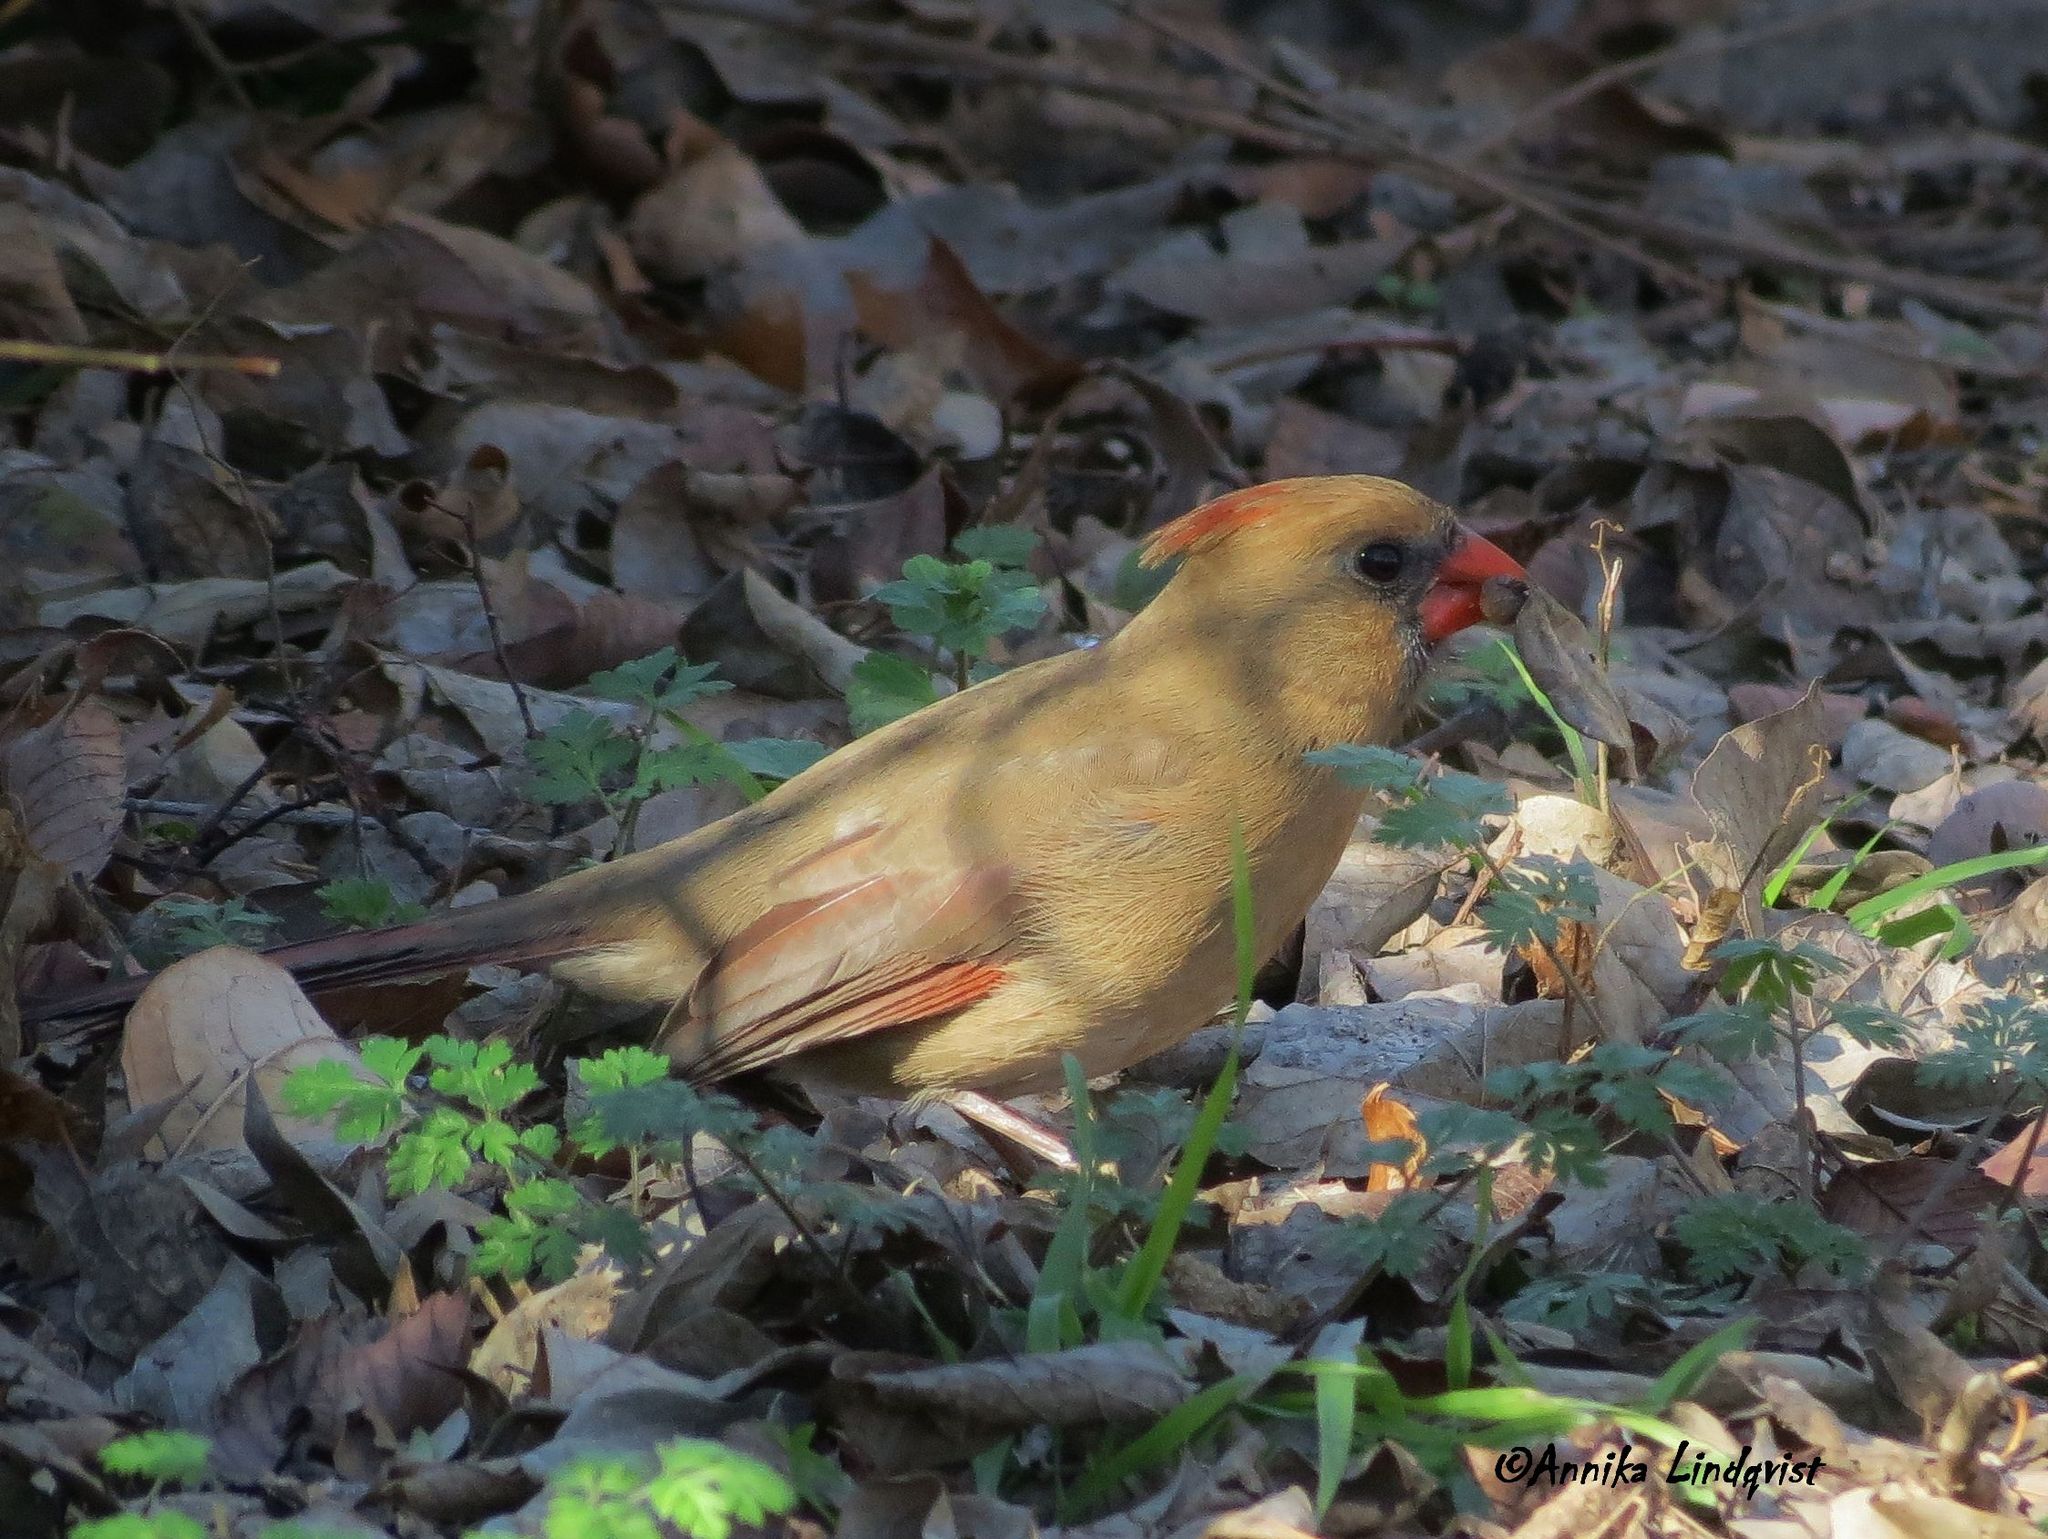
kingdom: Animalia
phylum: Chordata
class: Aves
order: Passeriformes
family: Cardinalidae
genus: Cardinalis
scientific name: Cardinalis cardinalis
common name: Northern cardinal
